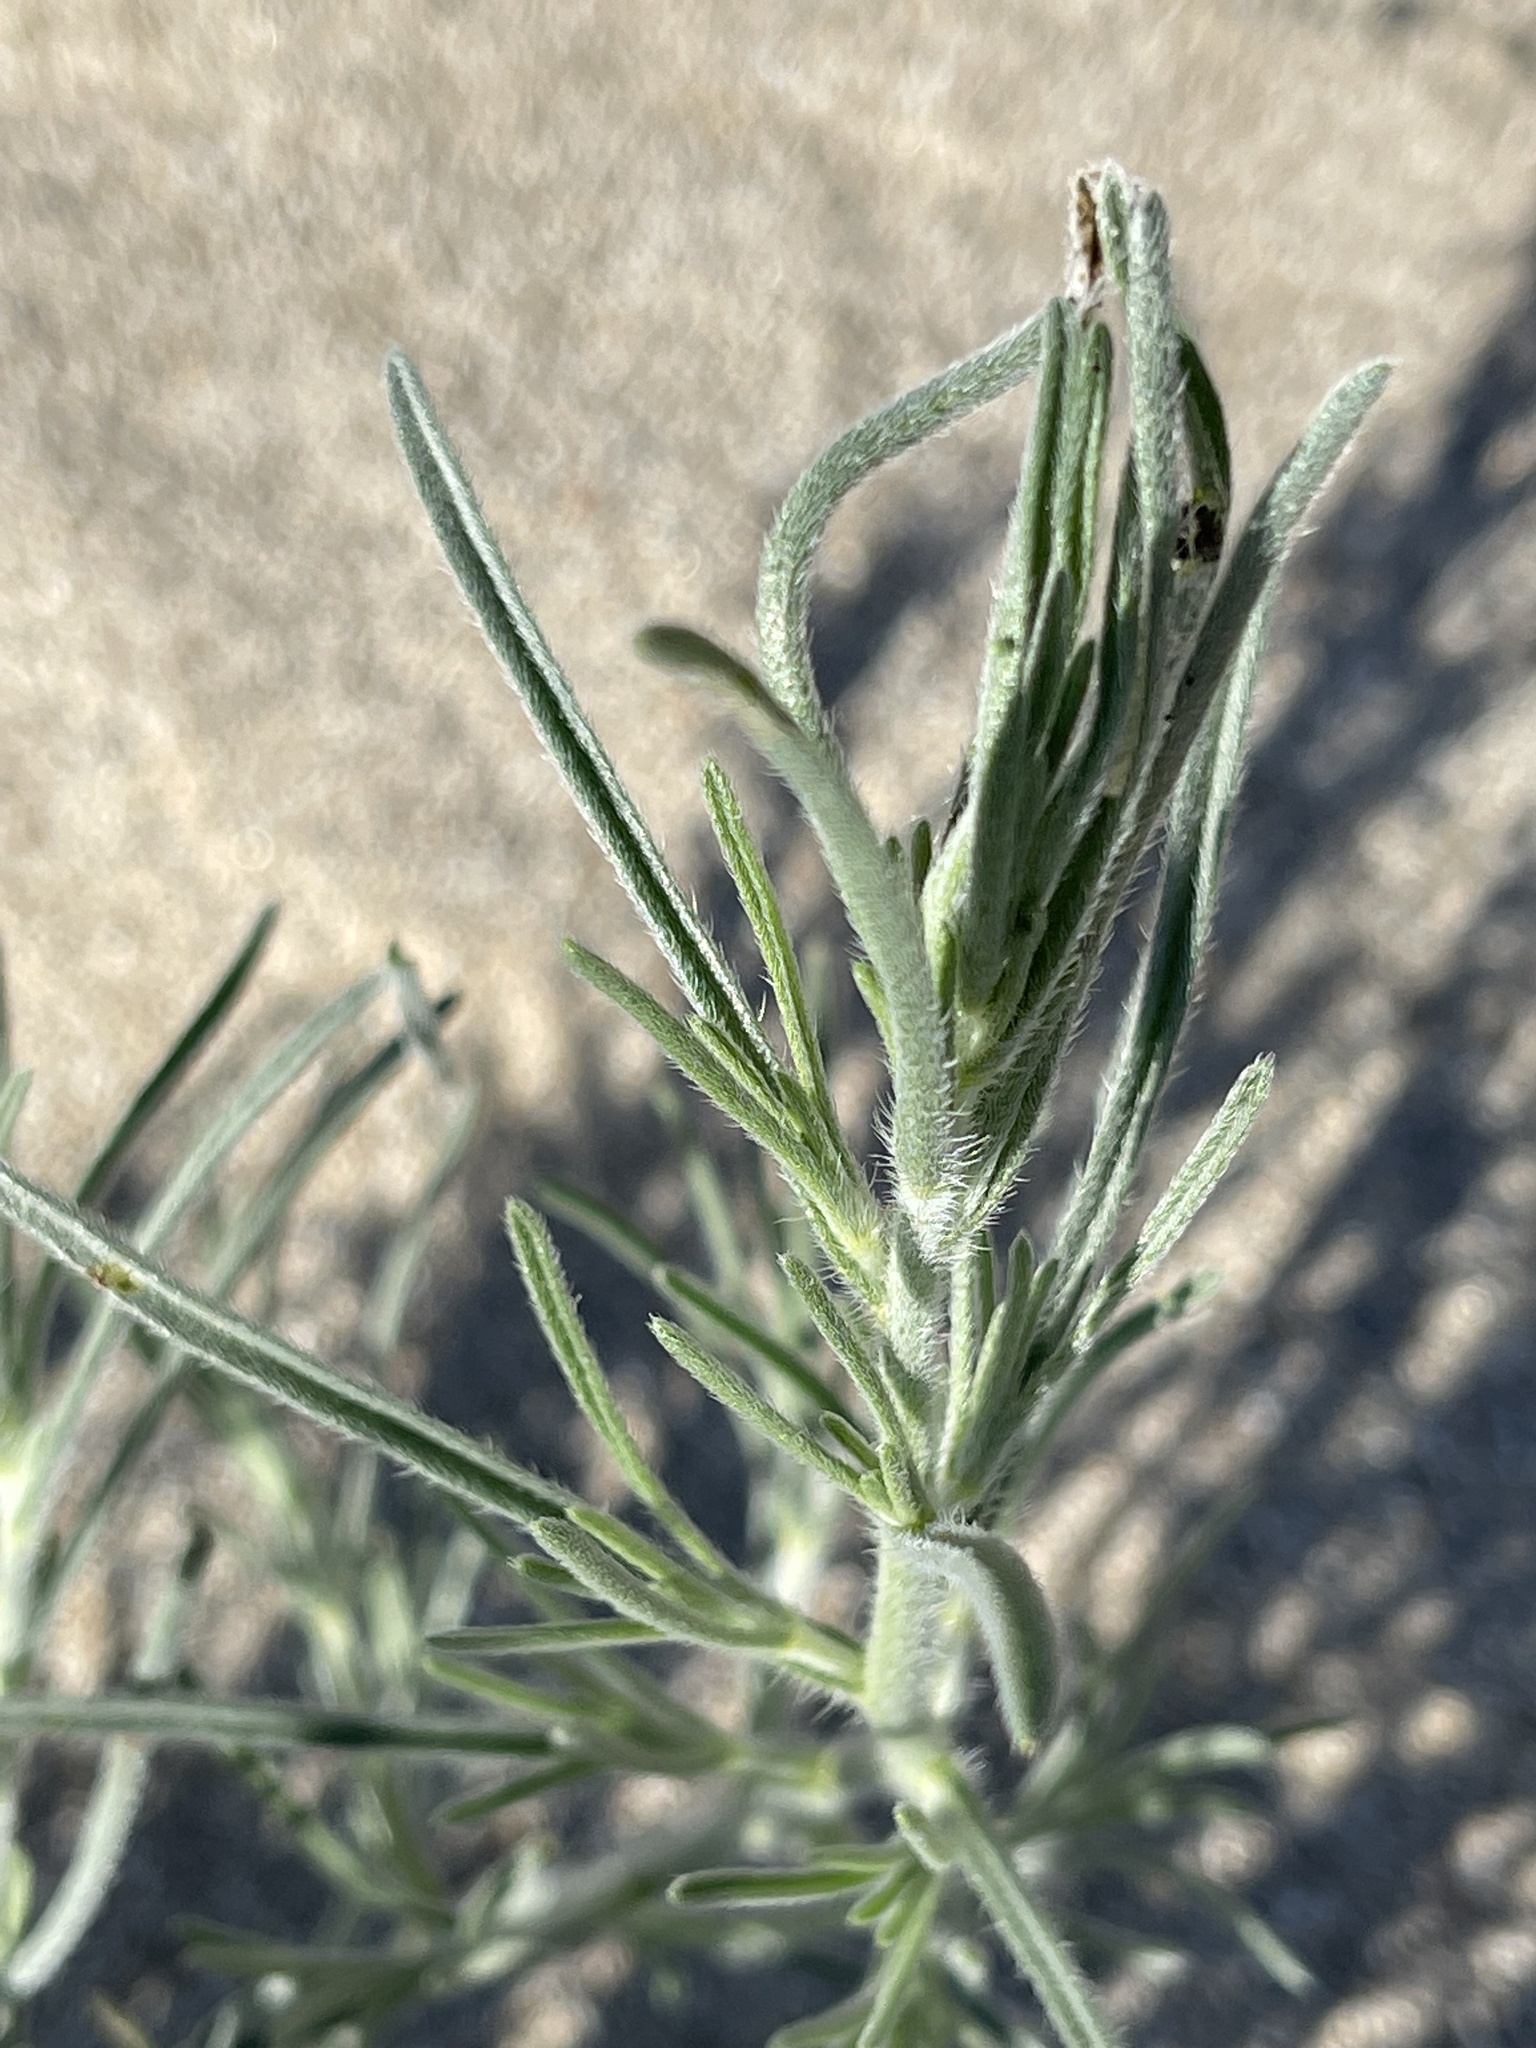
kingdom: Plantae
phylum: Tracheophyta
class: Magnoliopsida
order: Boraginales
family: Boraginaceae
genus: Johnstonella
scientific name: Johnstonella angustifolia
